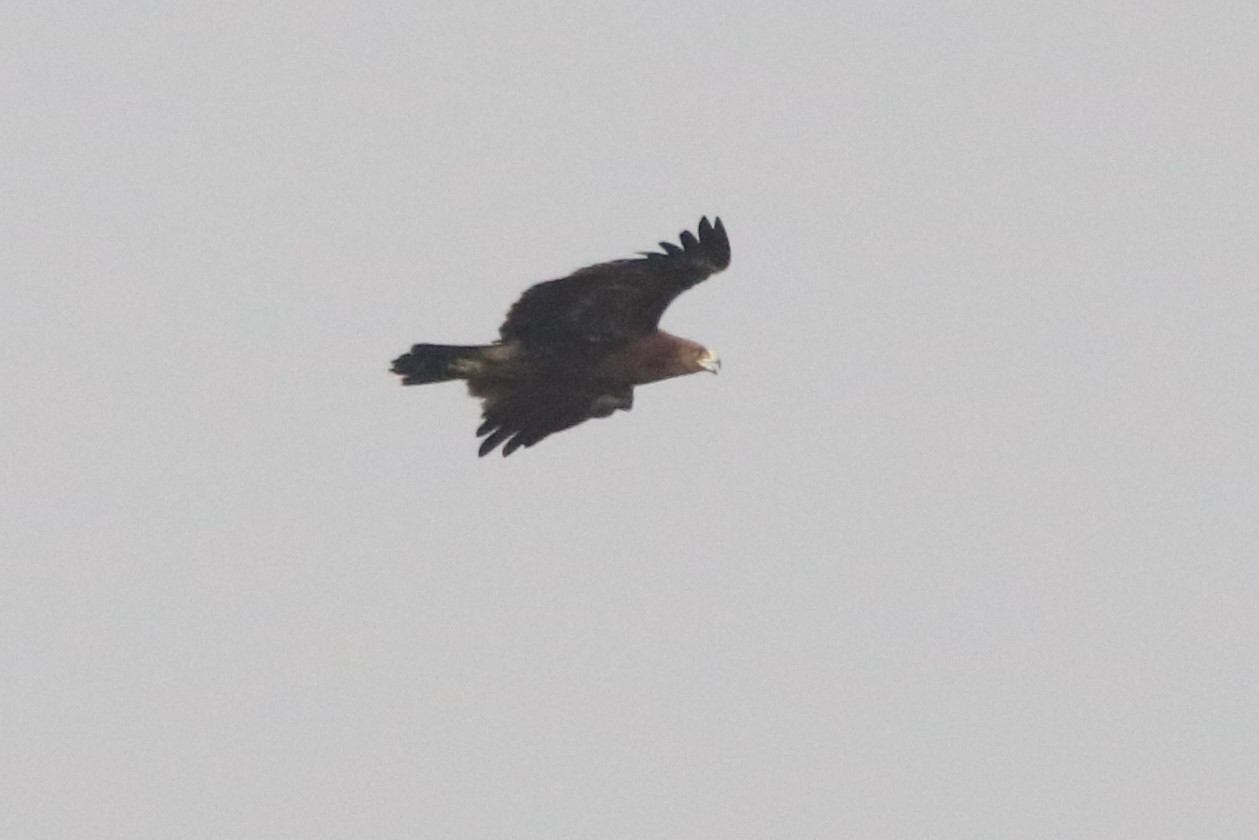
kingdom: Animalia
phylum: Chordata
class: Aves
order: Accipitriformes
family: Accipitridae
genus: Aquila
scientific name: Aquila clanga
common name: Greater spotted eagle
